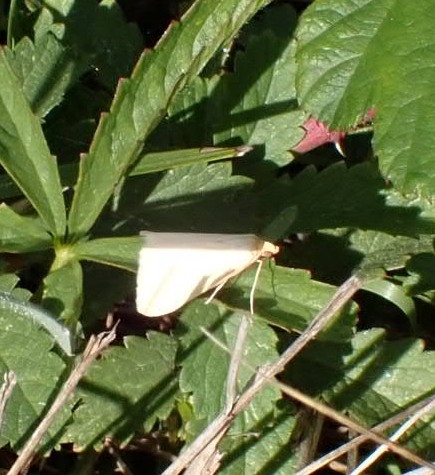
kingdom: Animalia
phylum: Arthropoda
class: Insecta
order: Lepidoptera
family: Geometridae
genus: Rhodometra
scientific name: Rhodometra sacraria
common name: Vestal
